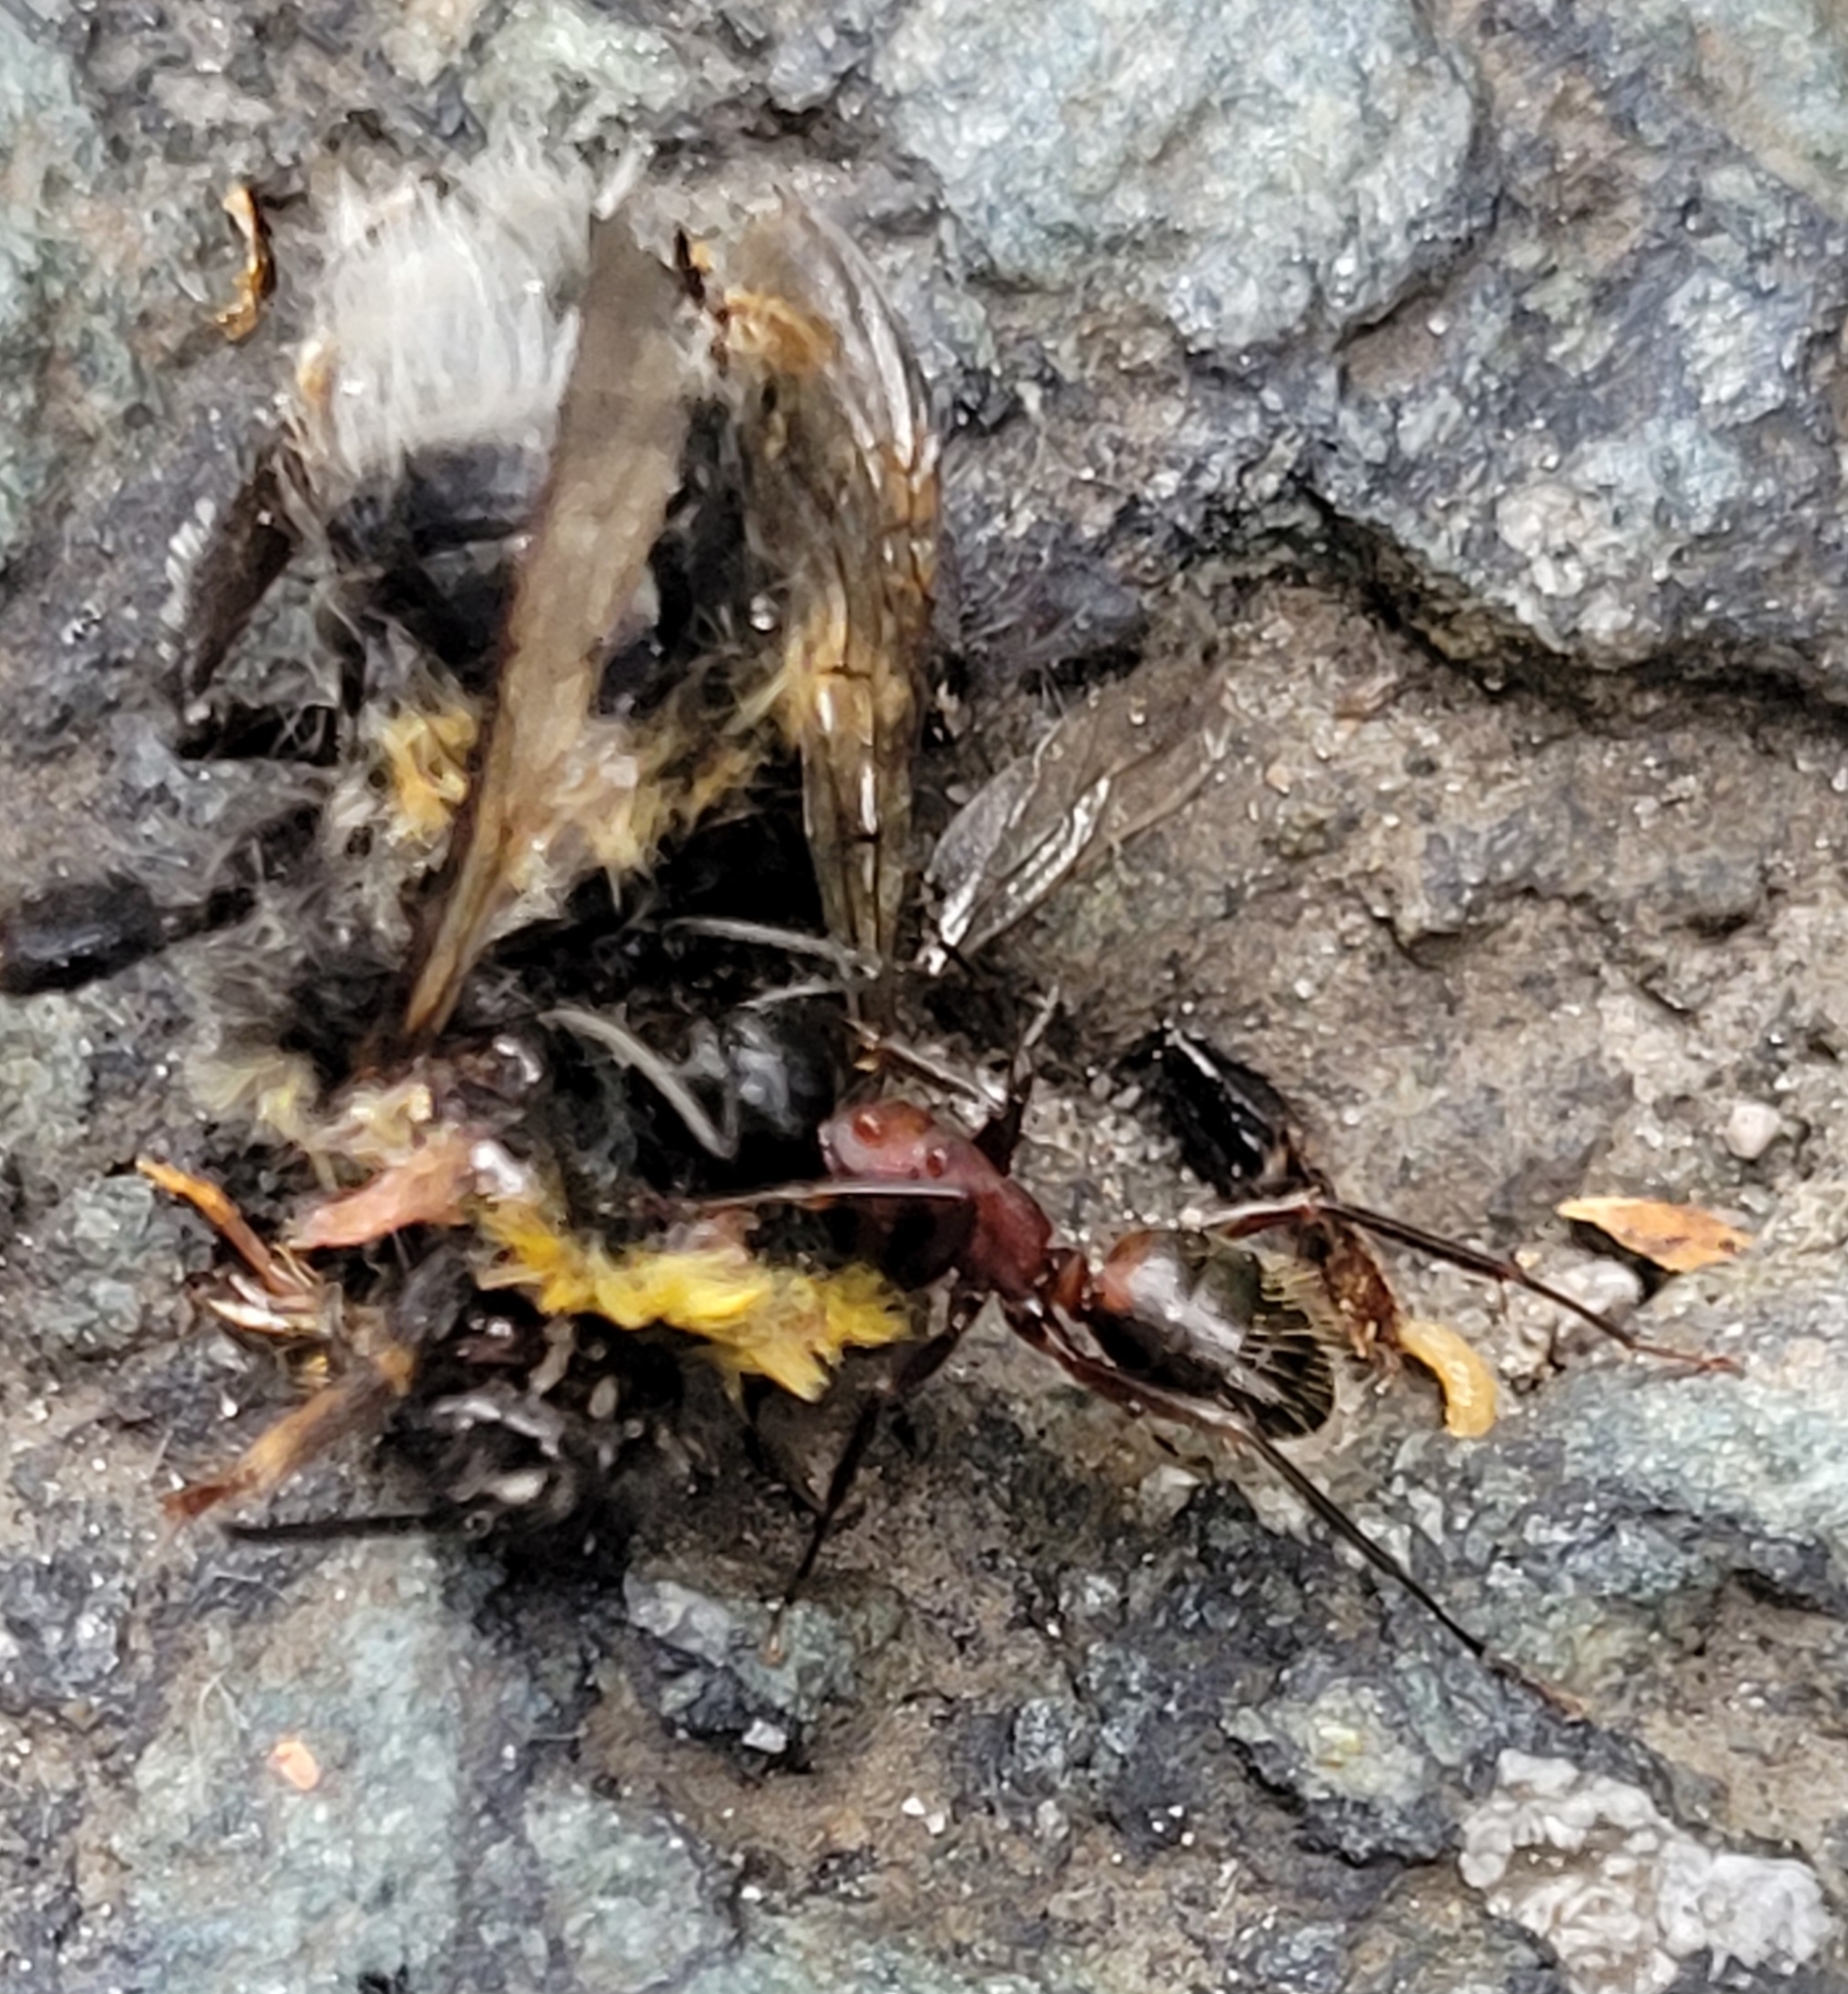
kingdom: Animalia
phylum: Arthropoda
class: Insecta
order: Hymenoptera
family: Formicidae
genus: Camponotus
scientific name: Camponotus ligniperdus
